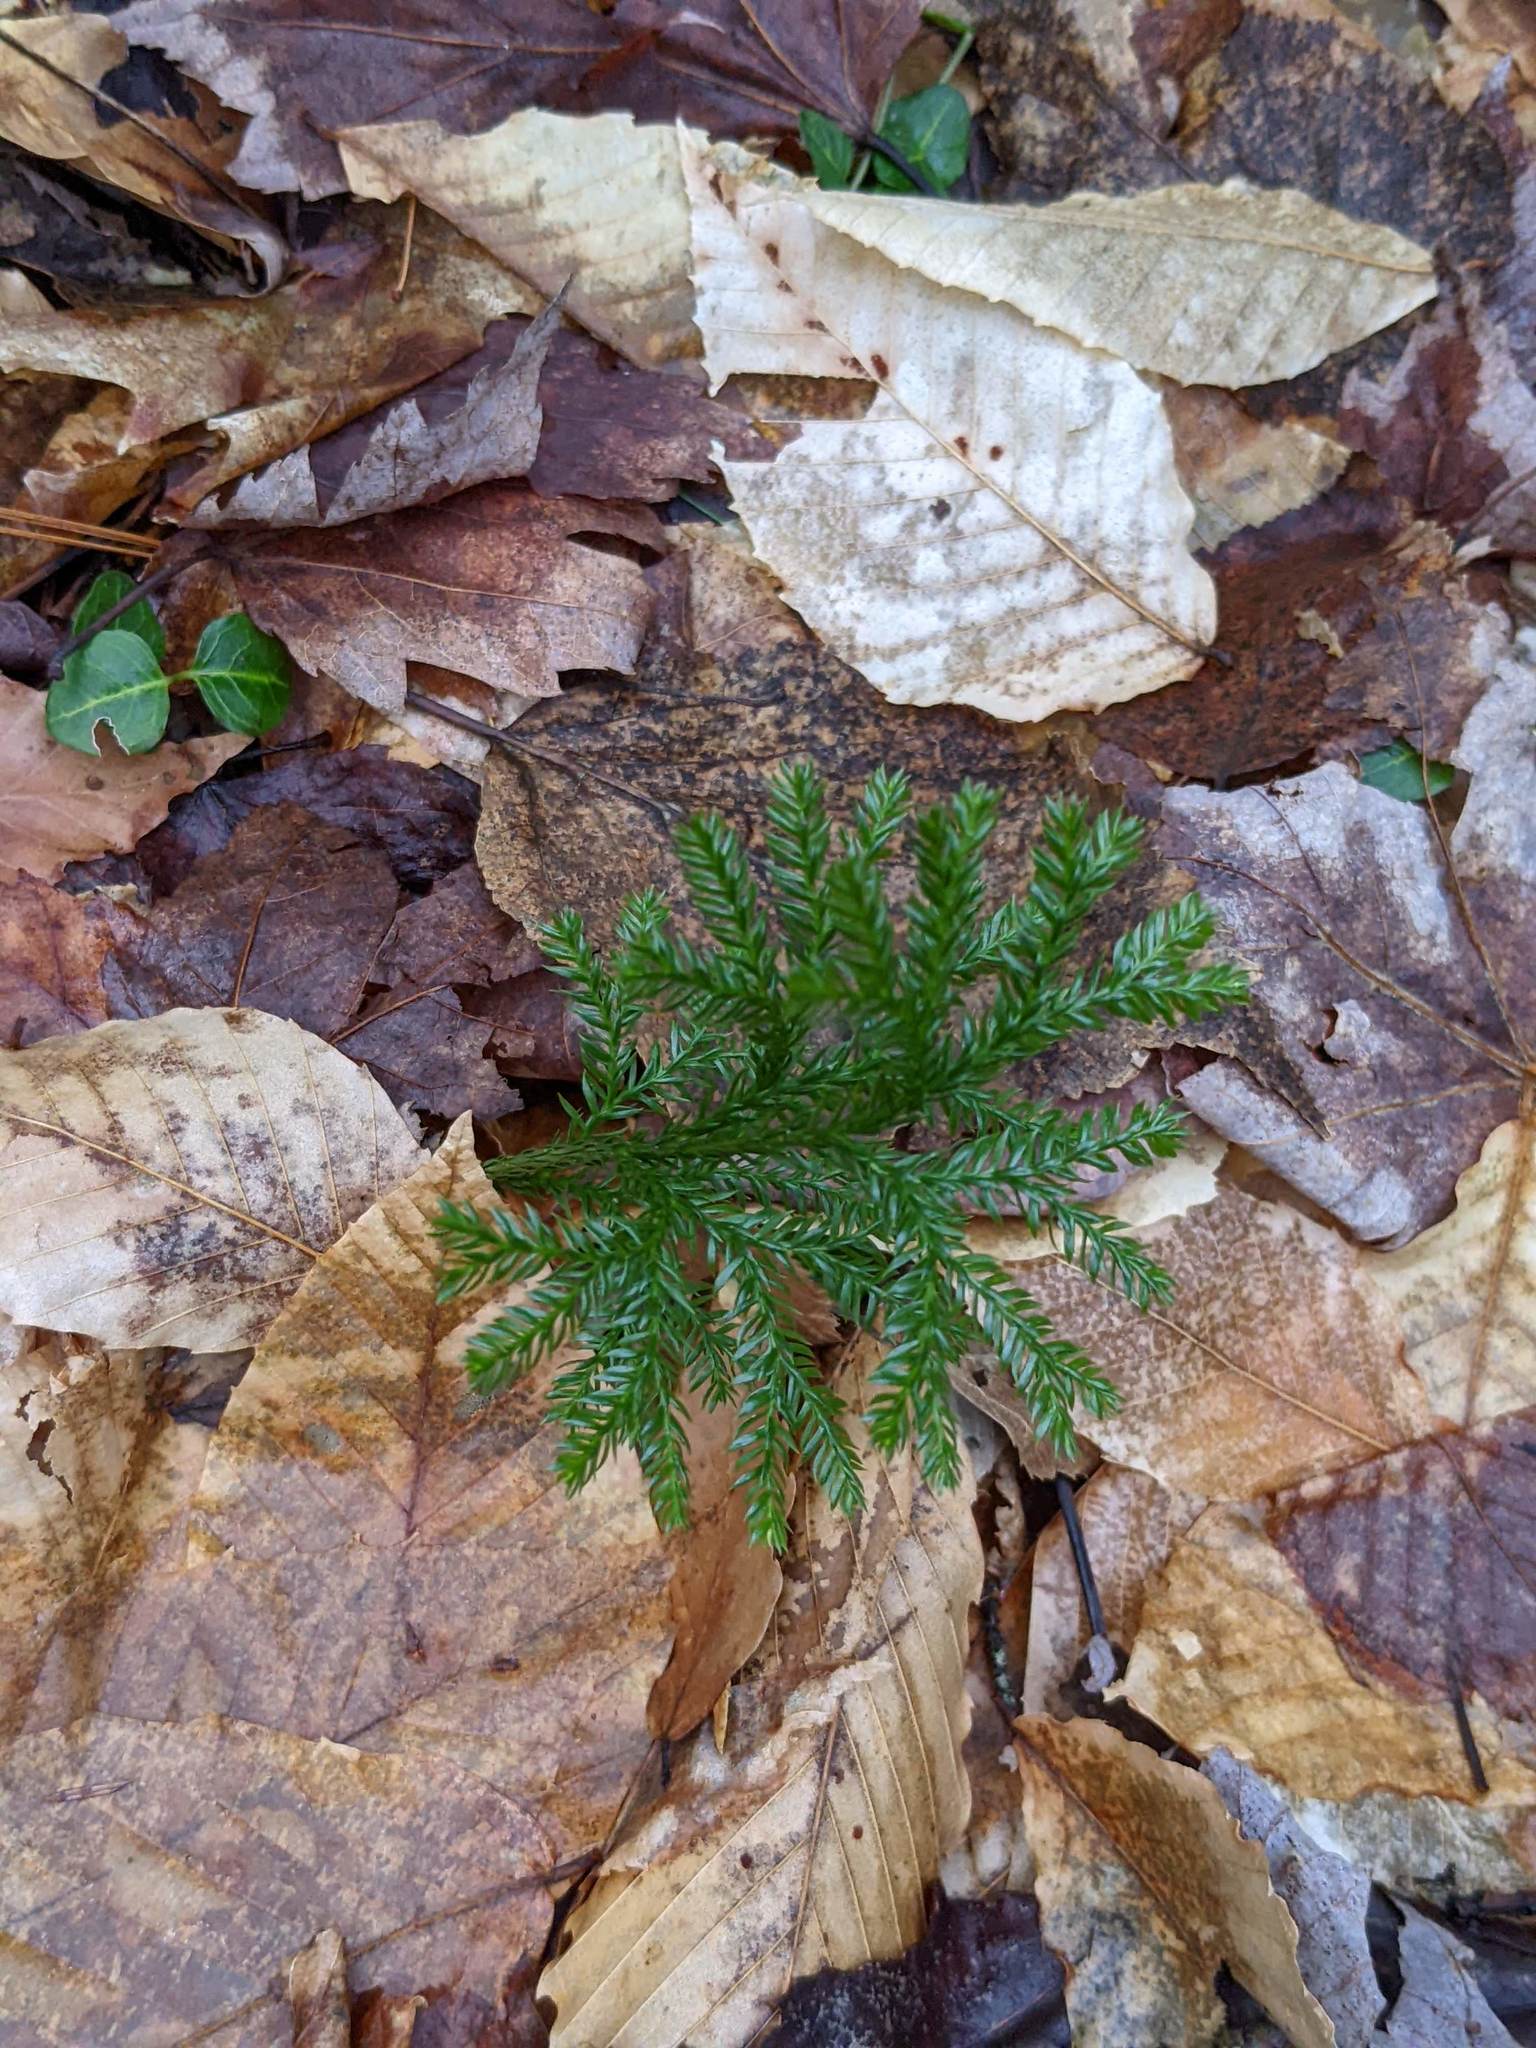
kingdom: Plantae
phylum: Tracheophyta
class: Magnoliopsida
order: Fagales
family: Fagaceae
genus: Fagus
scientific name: Fagus grandifolia
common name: American beech
